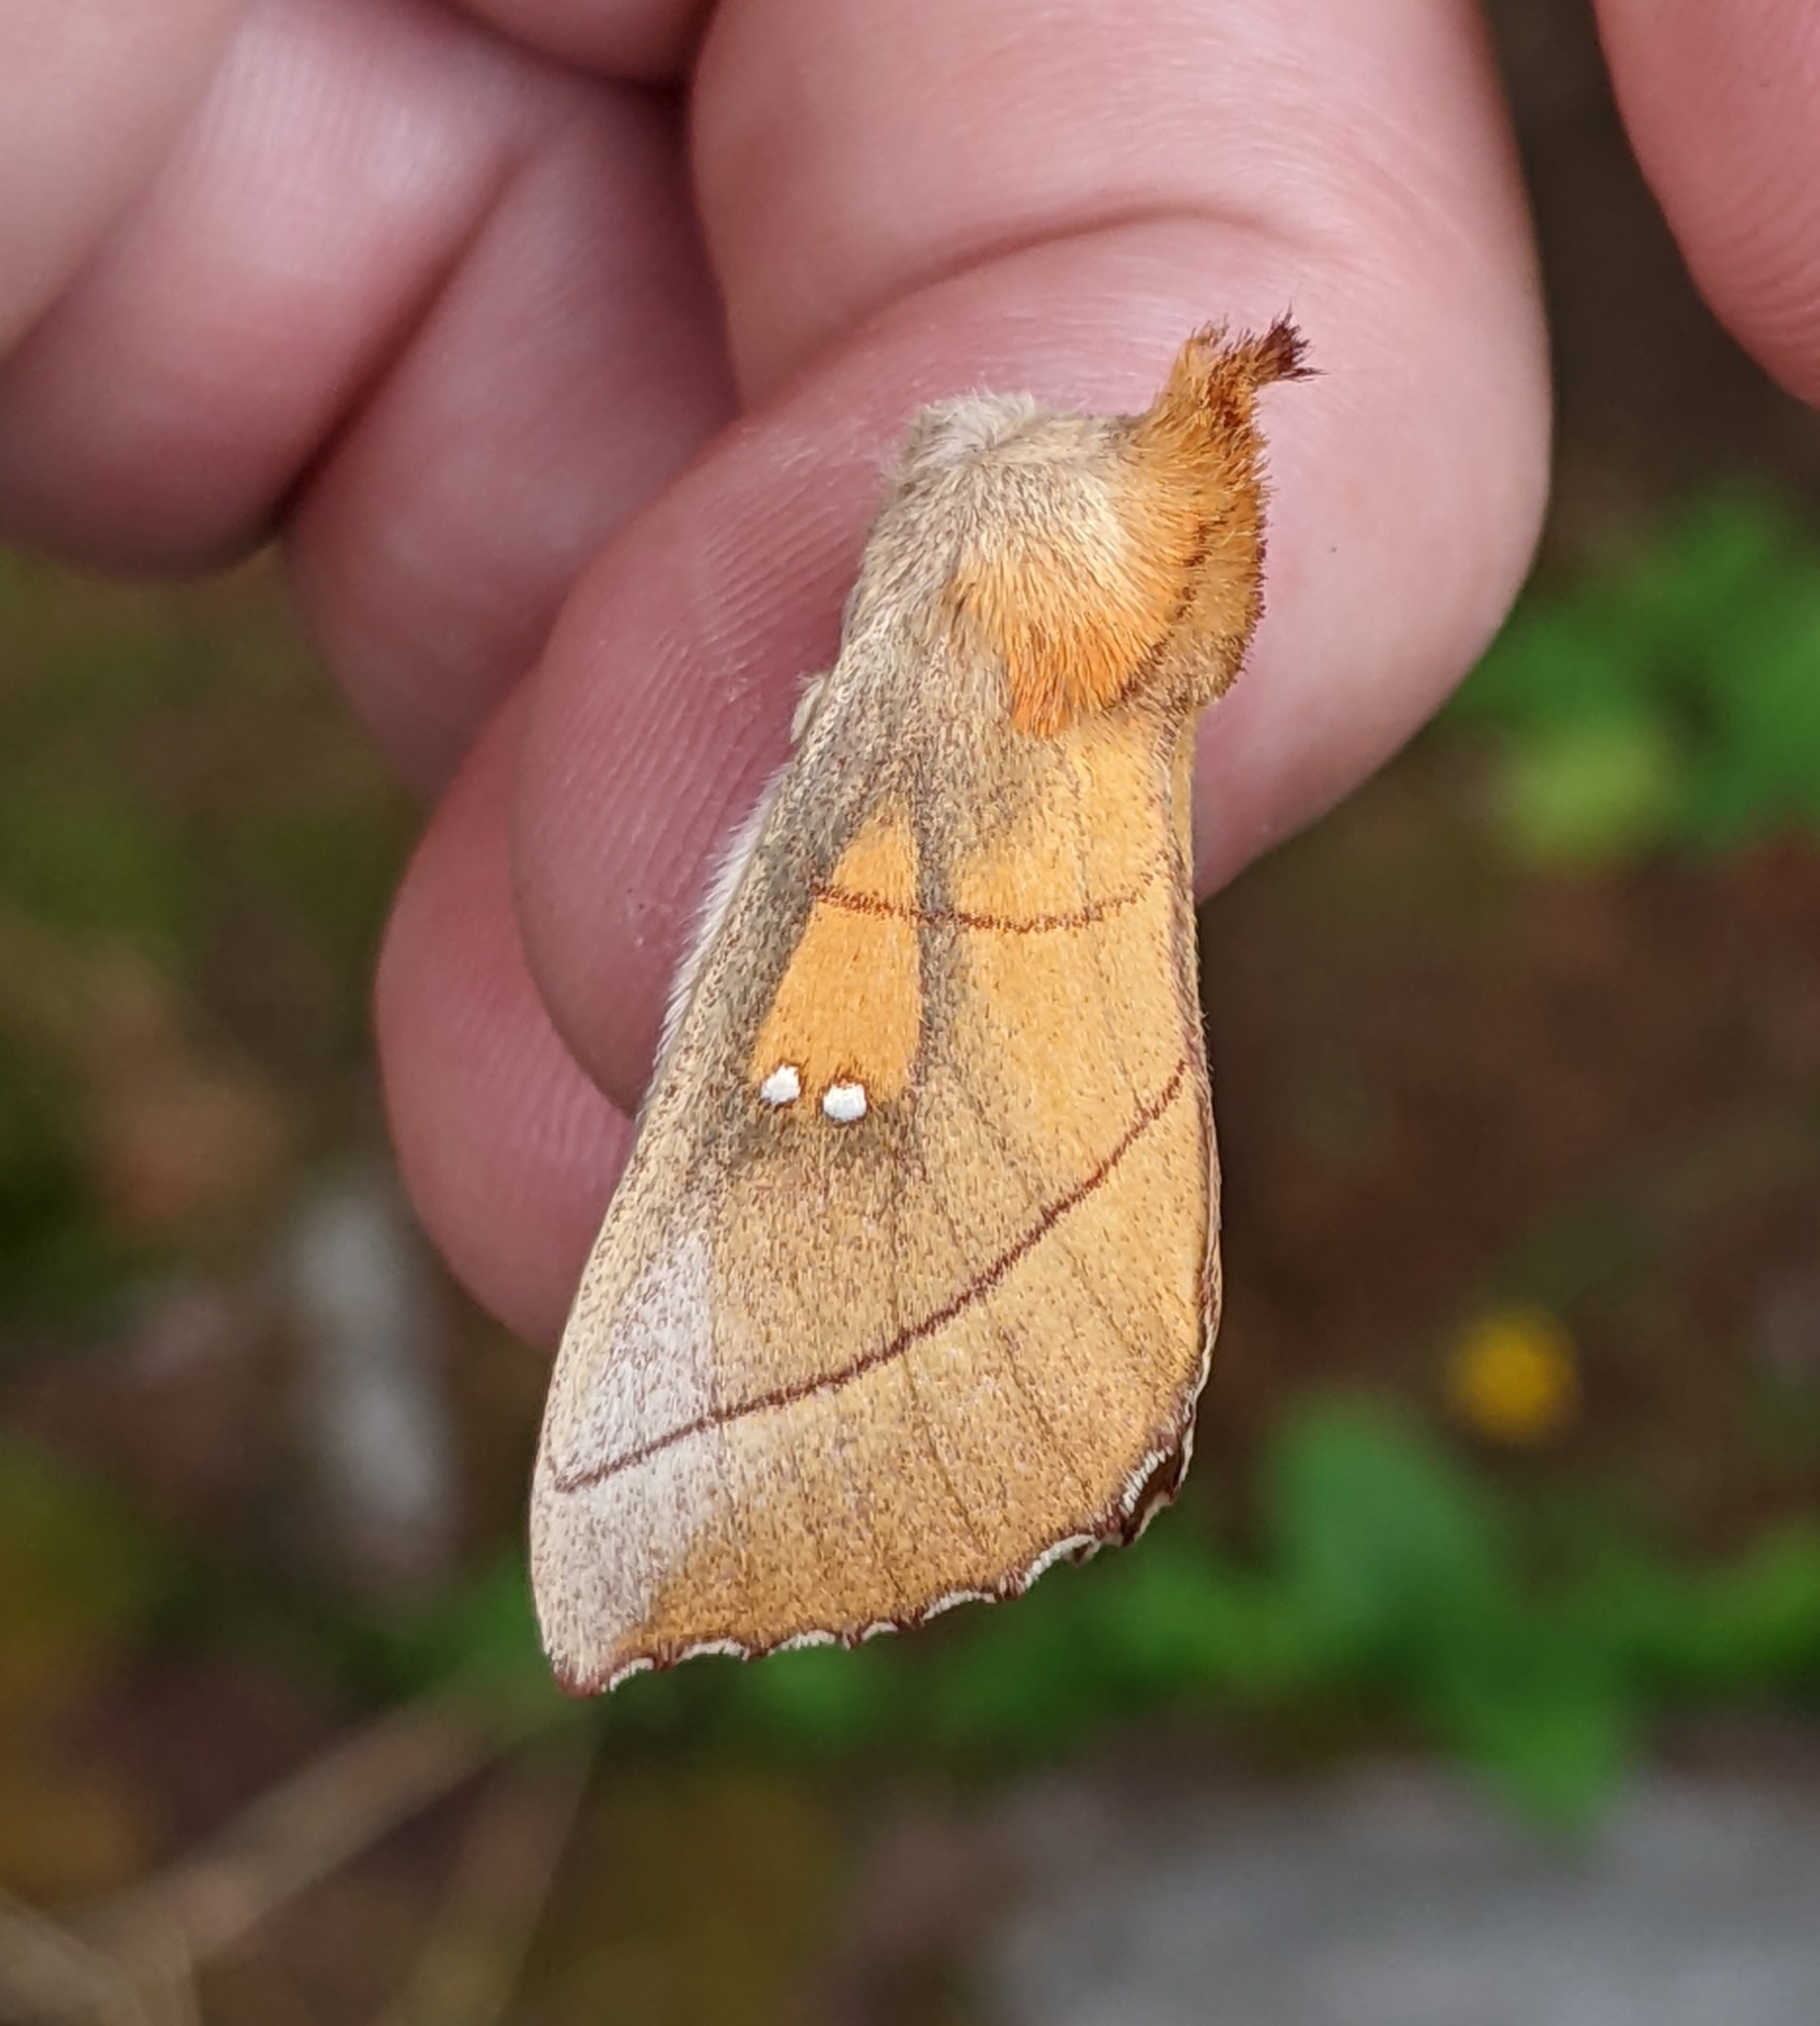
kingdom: Animalia
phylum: Arthropoda
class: Insecta
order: Lepidoptera
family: Notodontidae
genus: Nadata
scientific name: Nadata gibbosa
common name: White-dotted prominent
